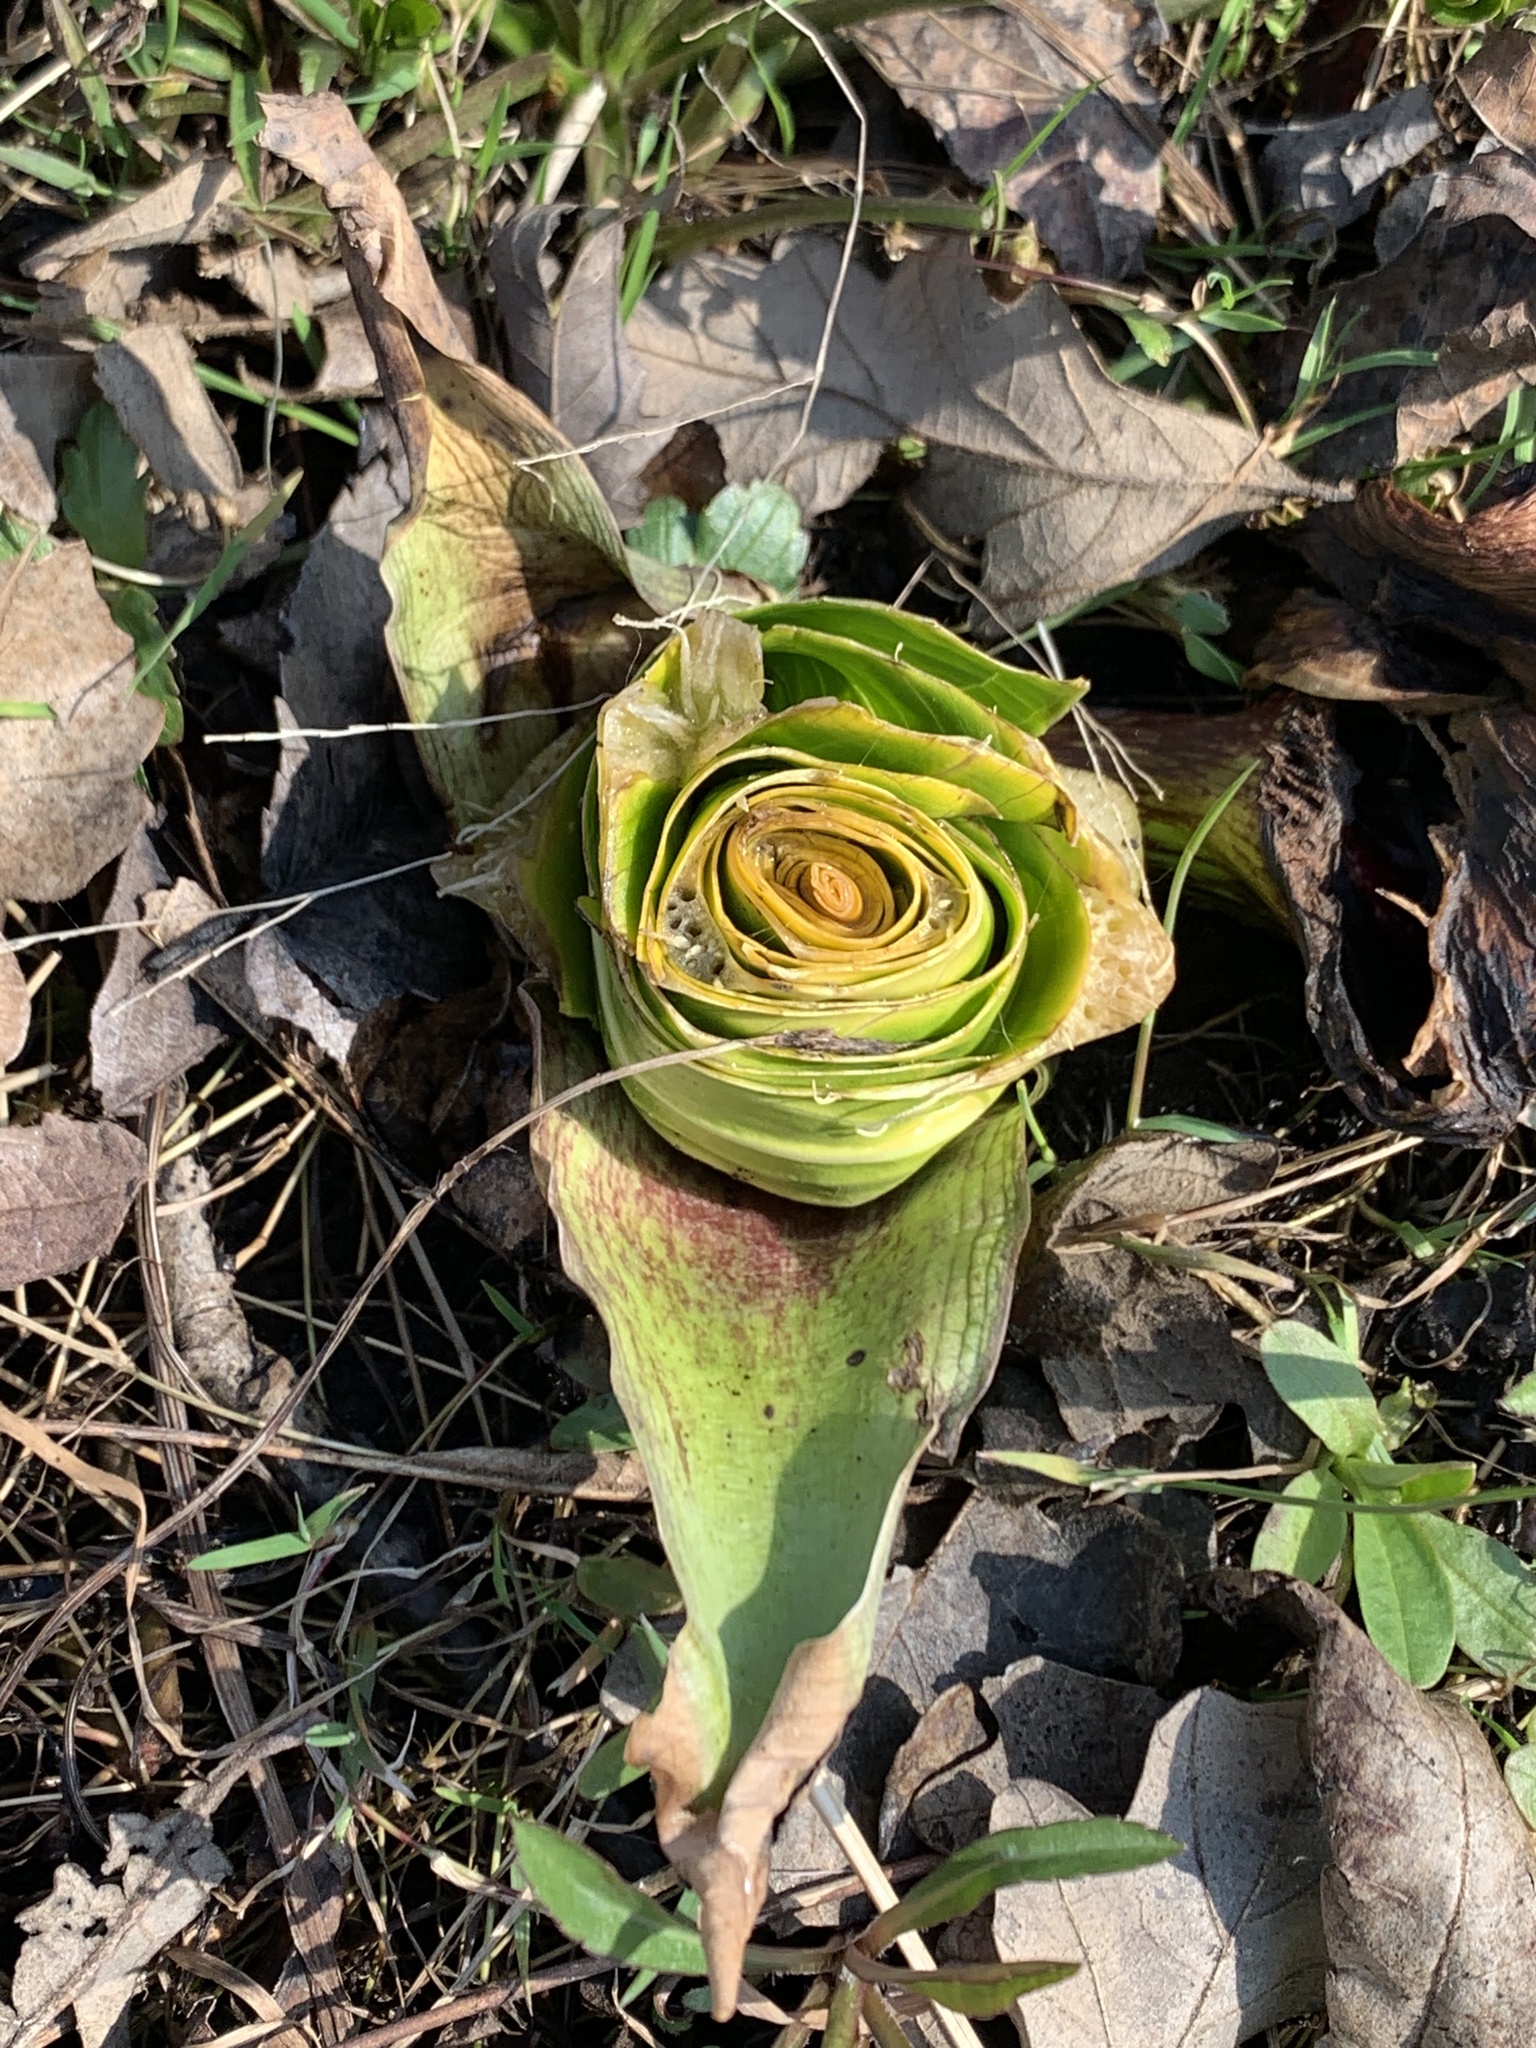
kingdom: Plantae
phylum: Tracheophyta
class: Liliopsida
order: Alismatales
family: Araceae
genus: Symplocarpus
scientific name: Symplocarpus foetidus
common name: Eastern skunk cabbage
